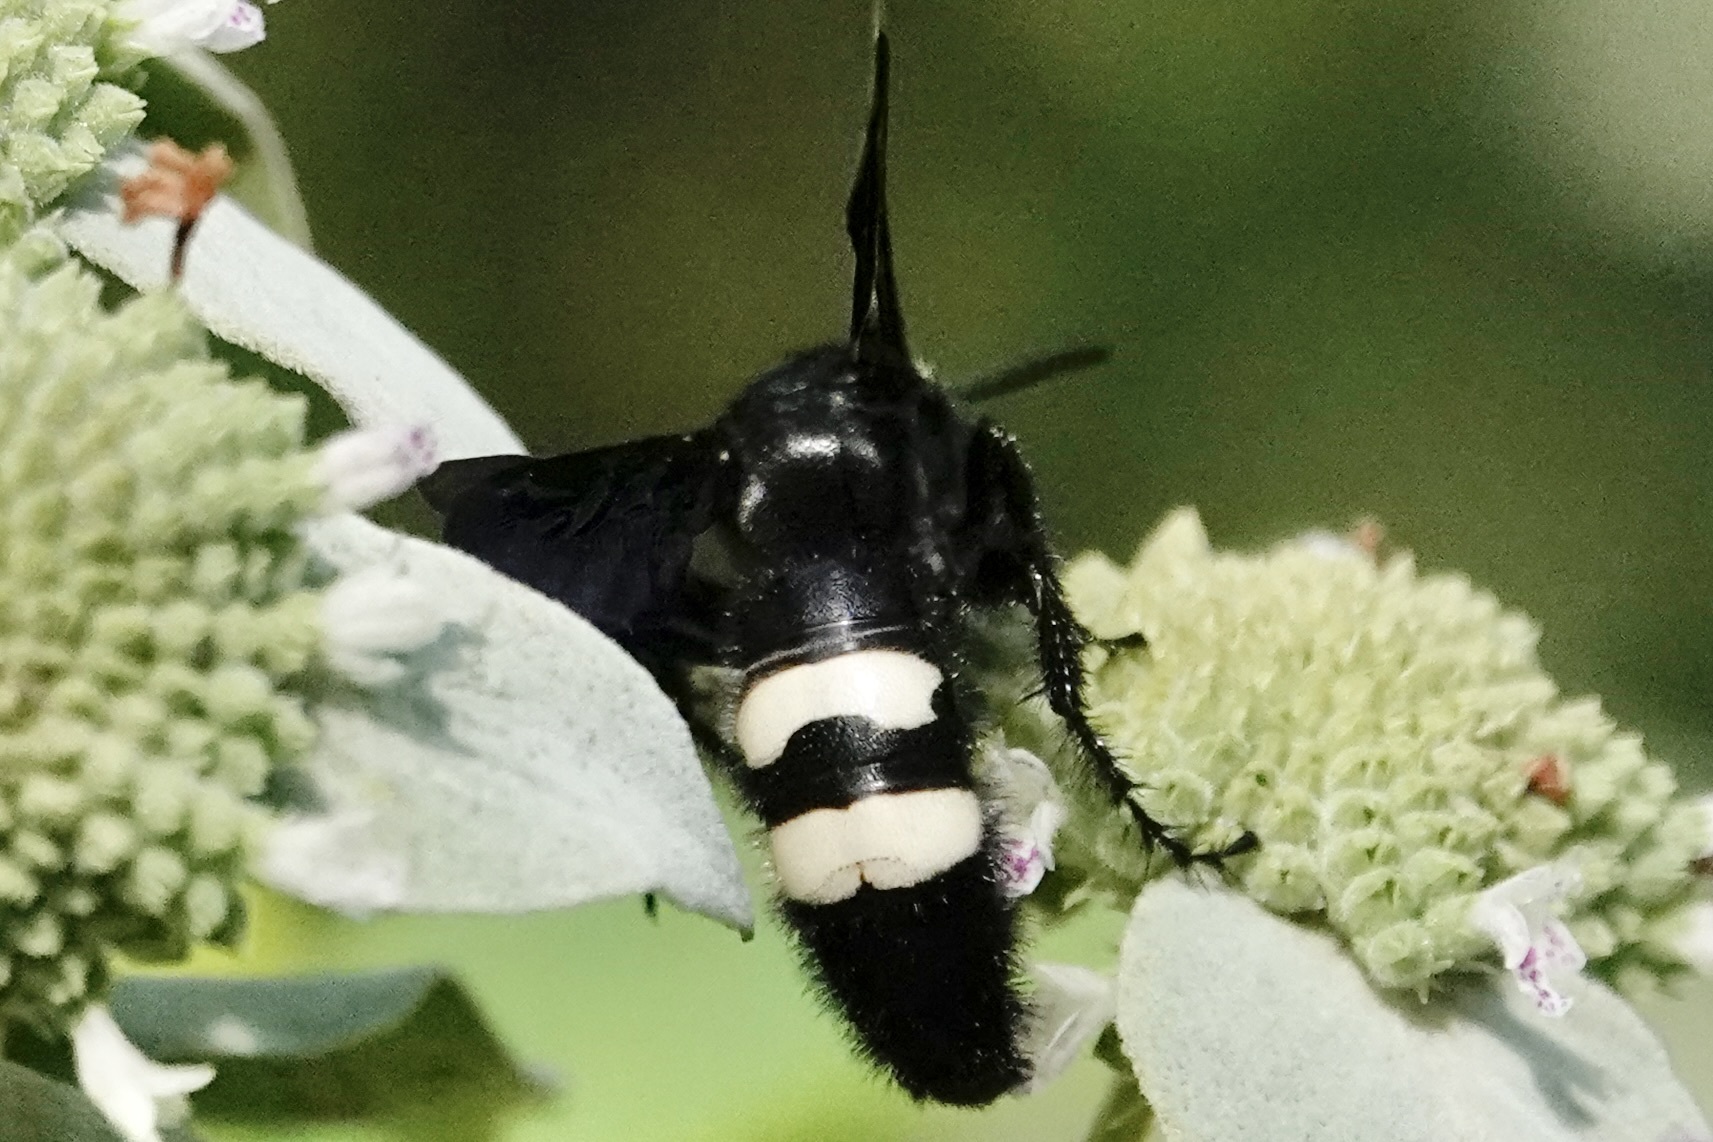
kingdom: Animalia
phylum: Arthropoda
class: Insecta
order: Hymenoptera
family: Scoliidae
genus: Scolia
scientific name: Scolia bicincta
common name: Double-banded scoliid wasp
